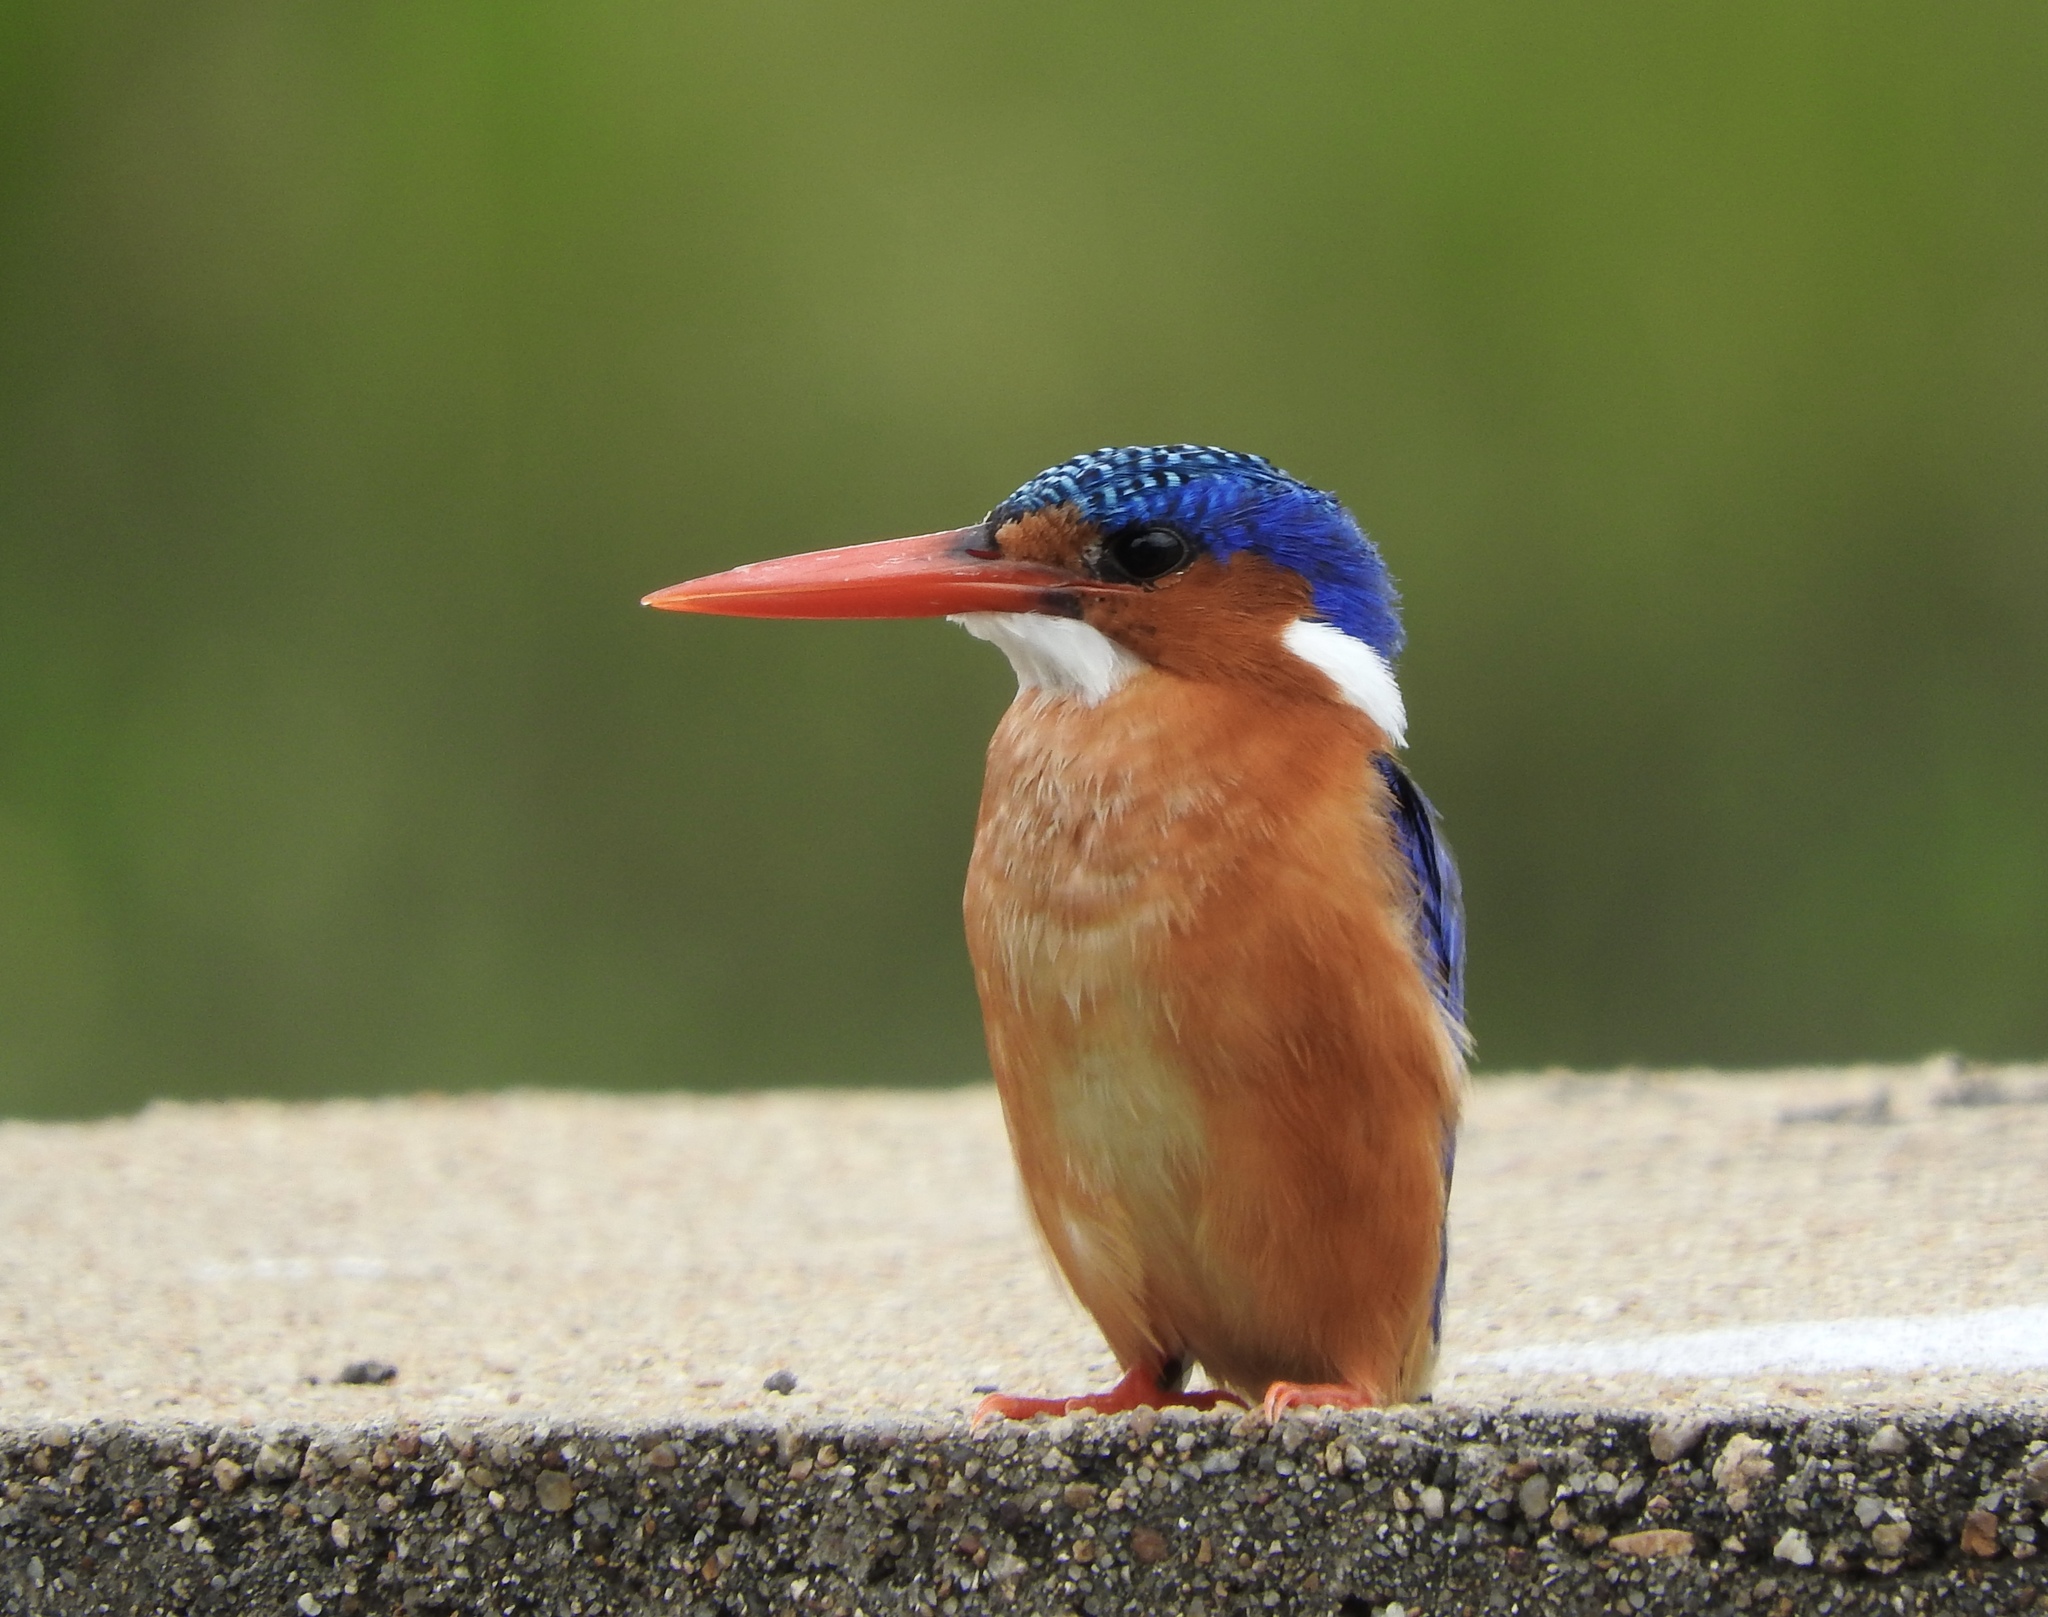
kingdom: Animalia
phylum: Chordata
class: Aves
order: Coraciiformes
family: Alcedinidae
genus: Corythornis
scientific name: Corythornis cristatus
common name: Malachite kingfisher
